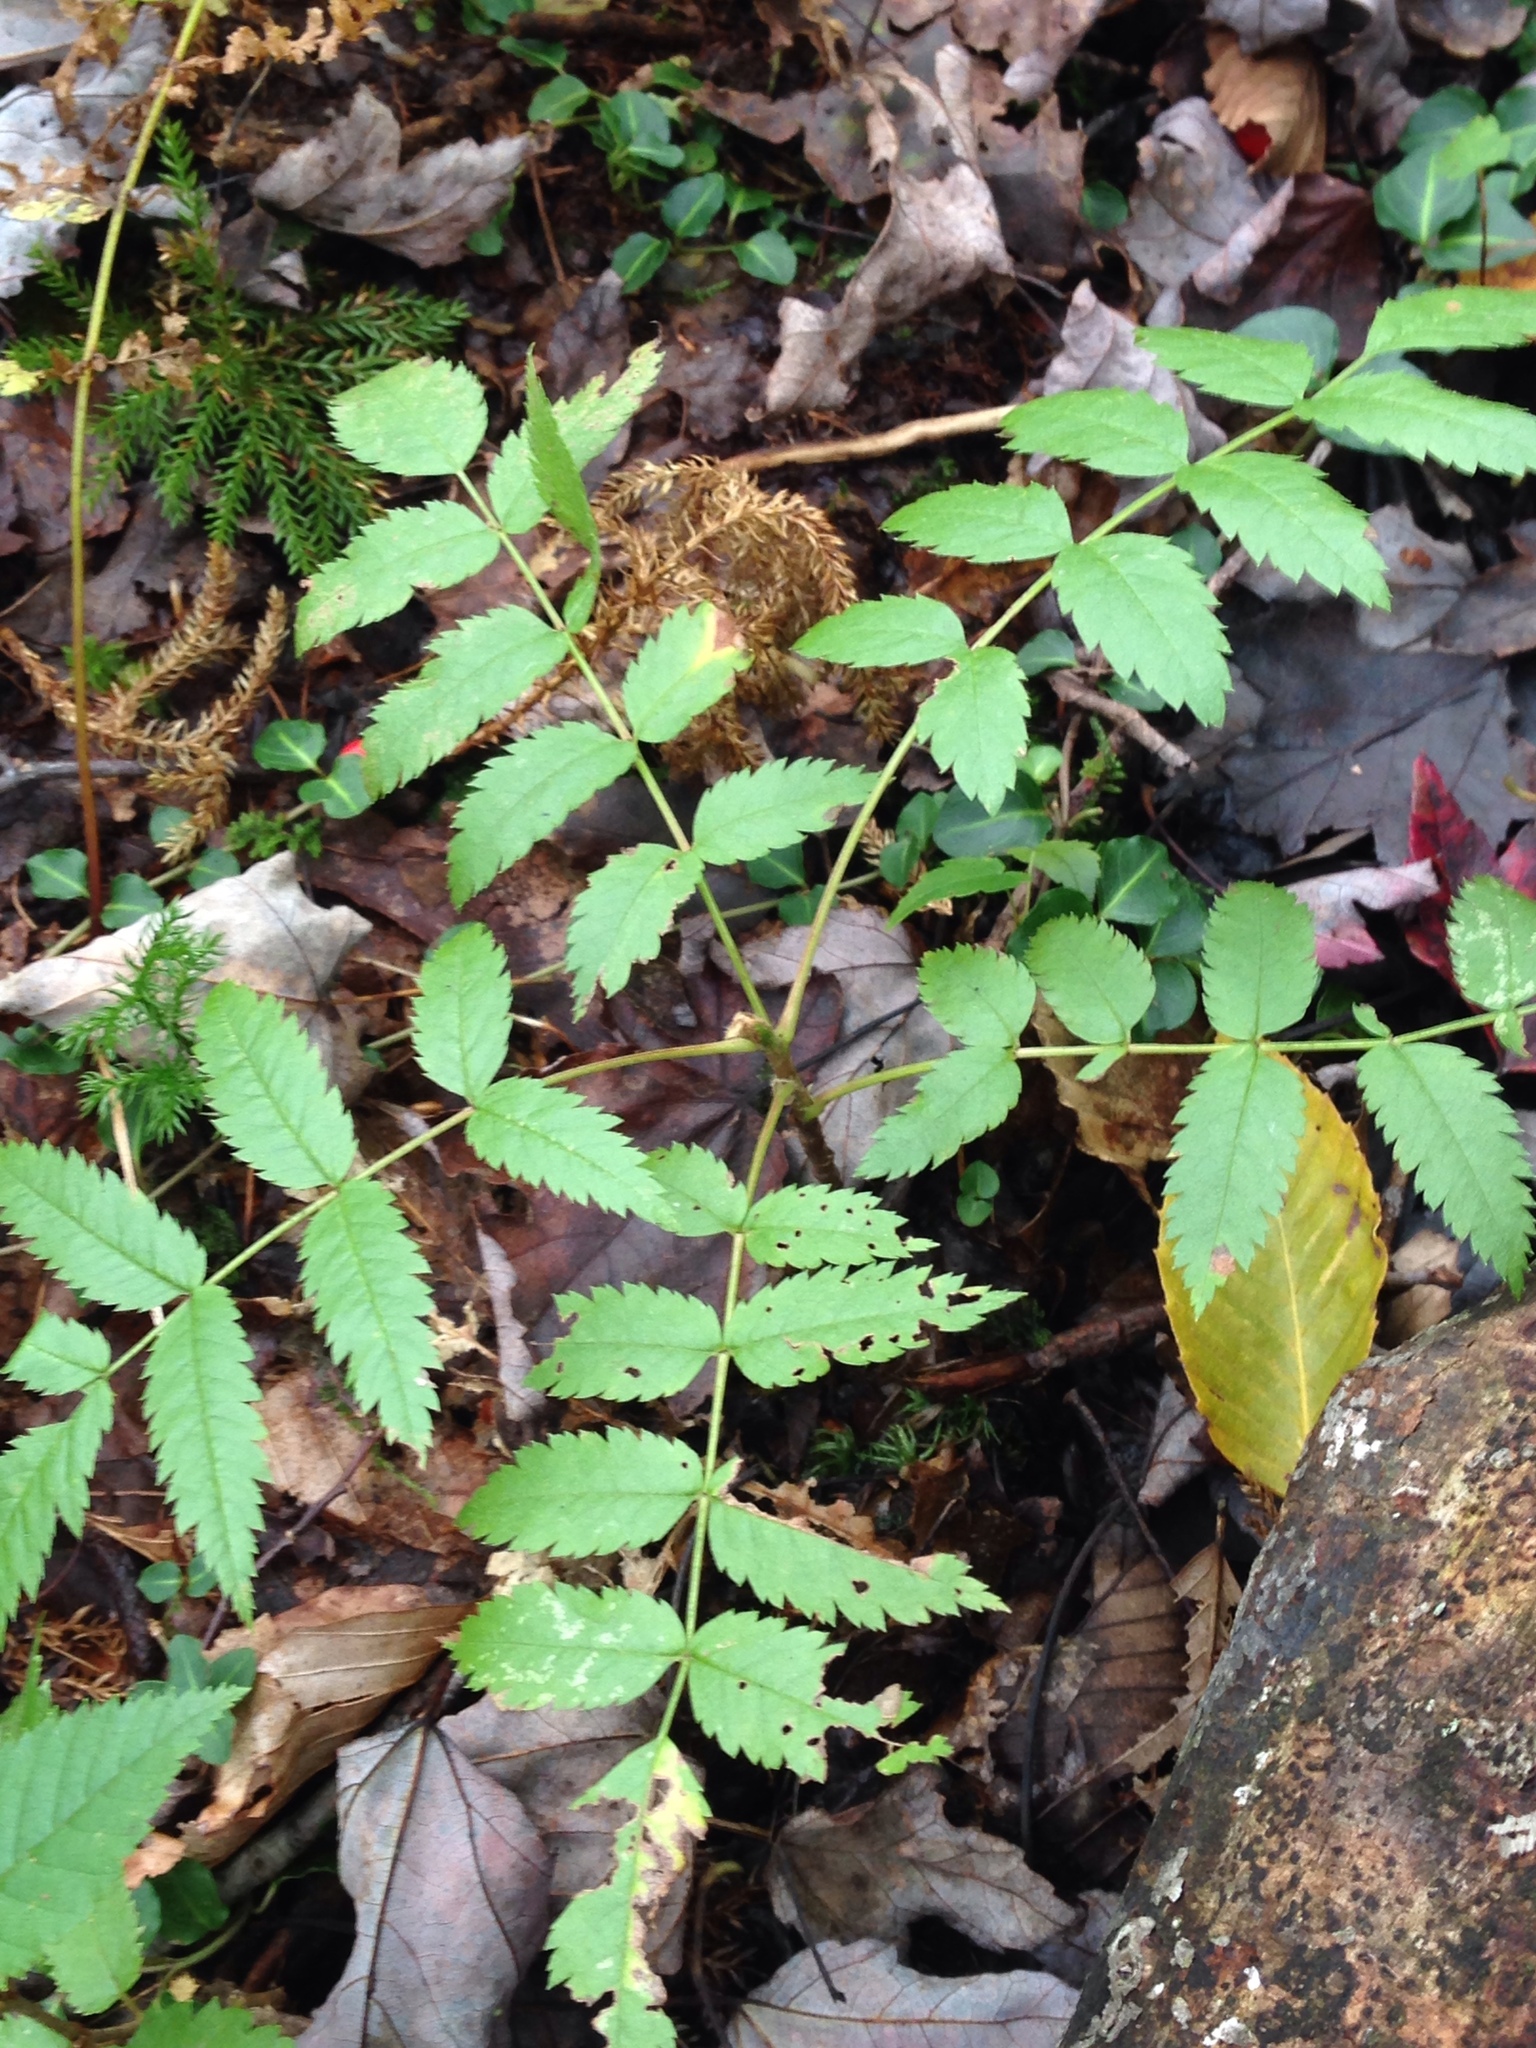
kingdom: Plantae
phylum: Tracheophyta
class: Magnoliopsida
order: Rosales
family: Rosaceae
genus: Sorbus
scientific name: Sorbus americana
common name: American mountain-ash
